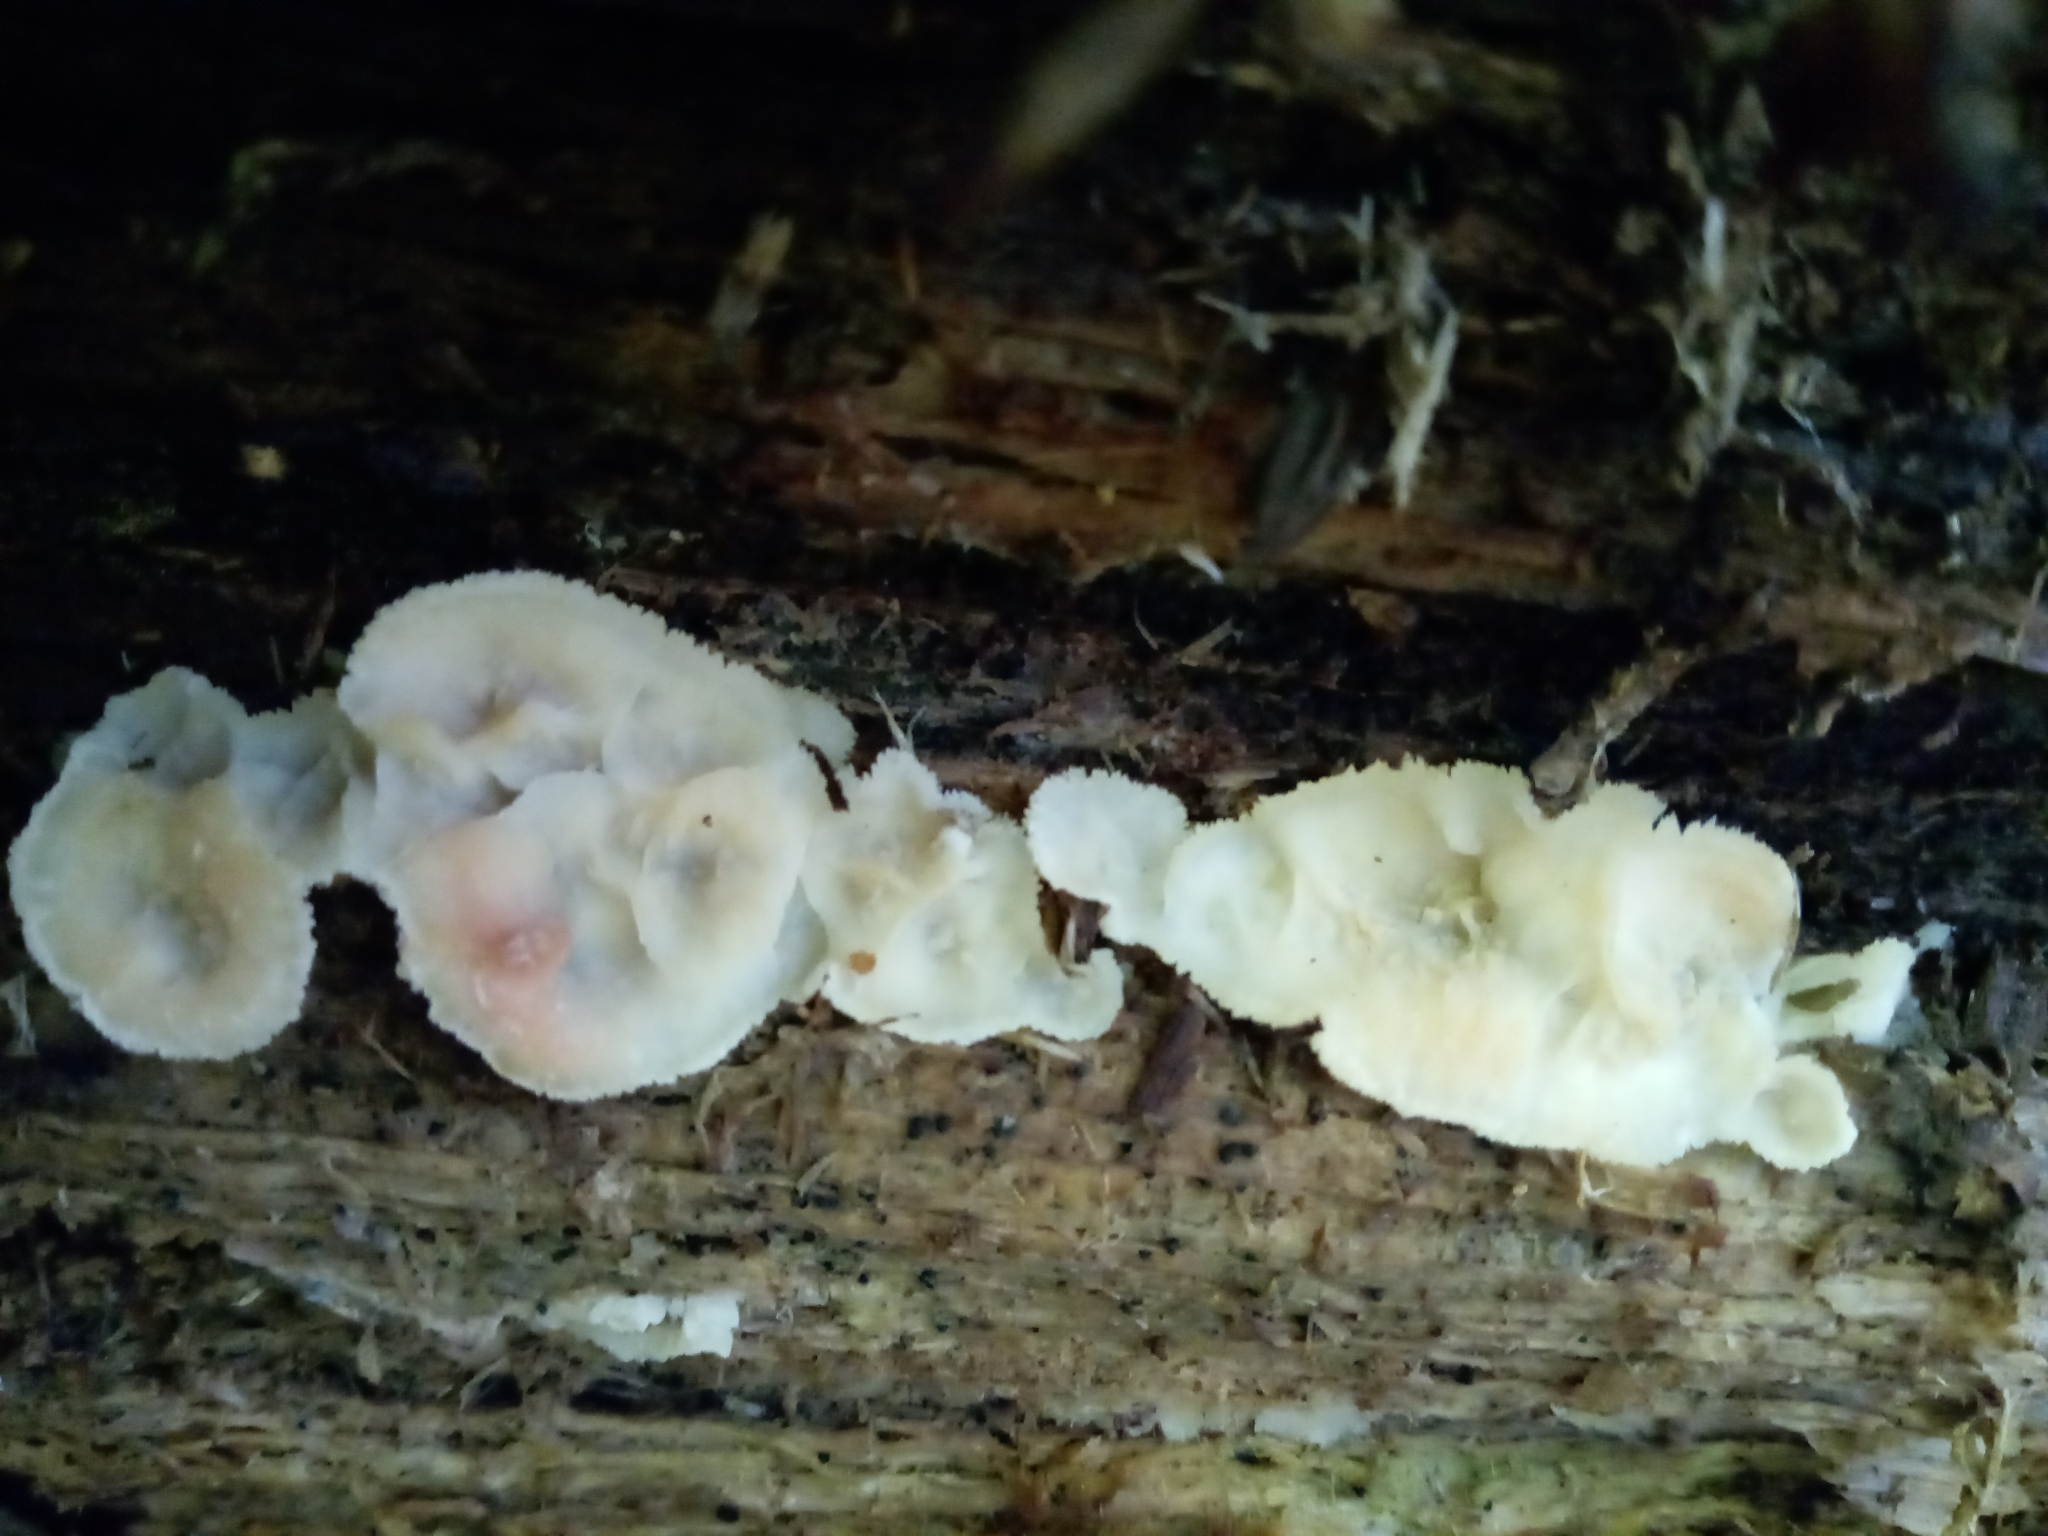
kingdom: Fungi
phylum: Basidiomycota
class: Agaricomycetes
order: Polyporales
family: Meruliaceae
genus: Phlebia
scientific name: Phlebia tremellosa
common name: Jelly rot
